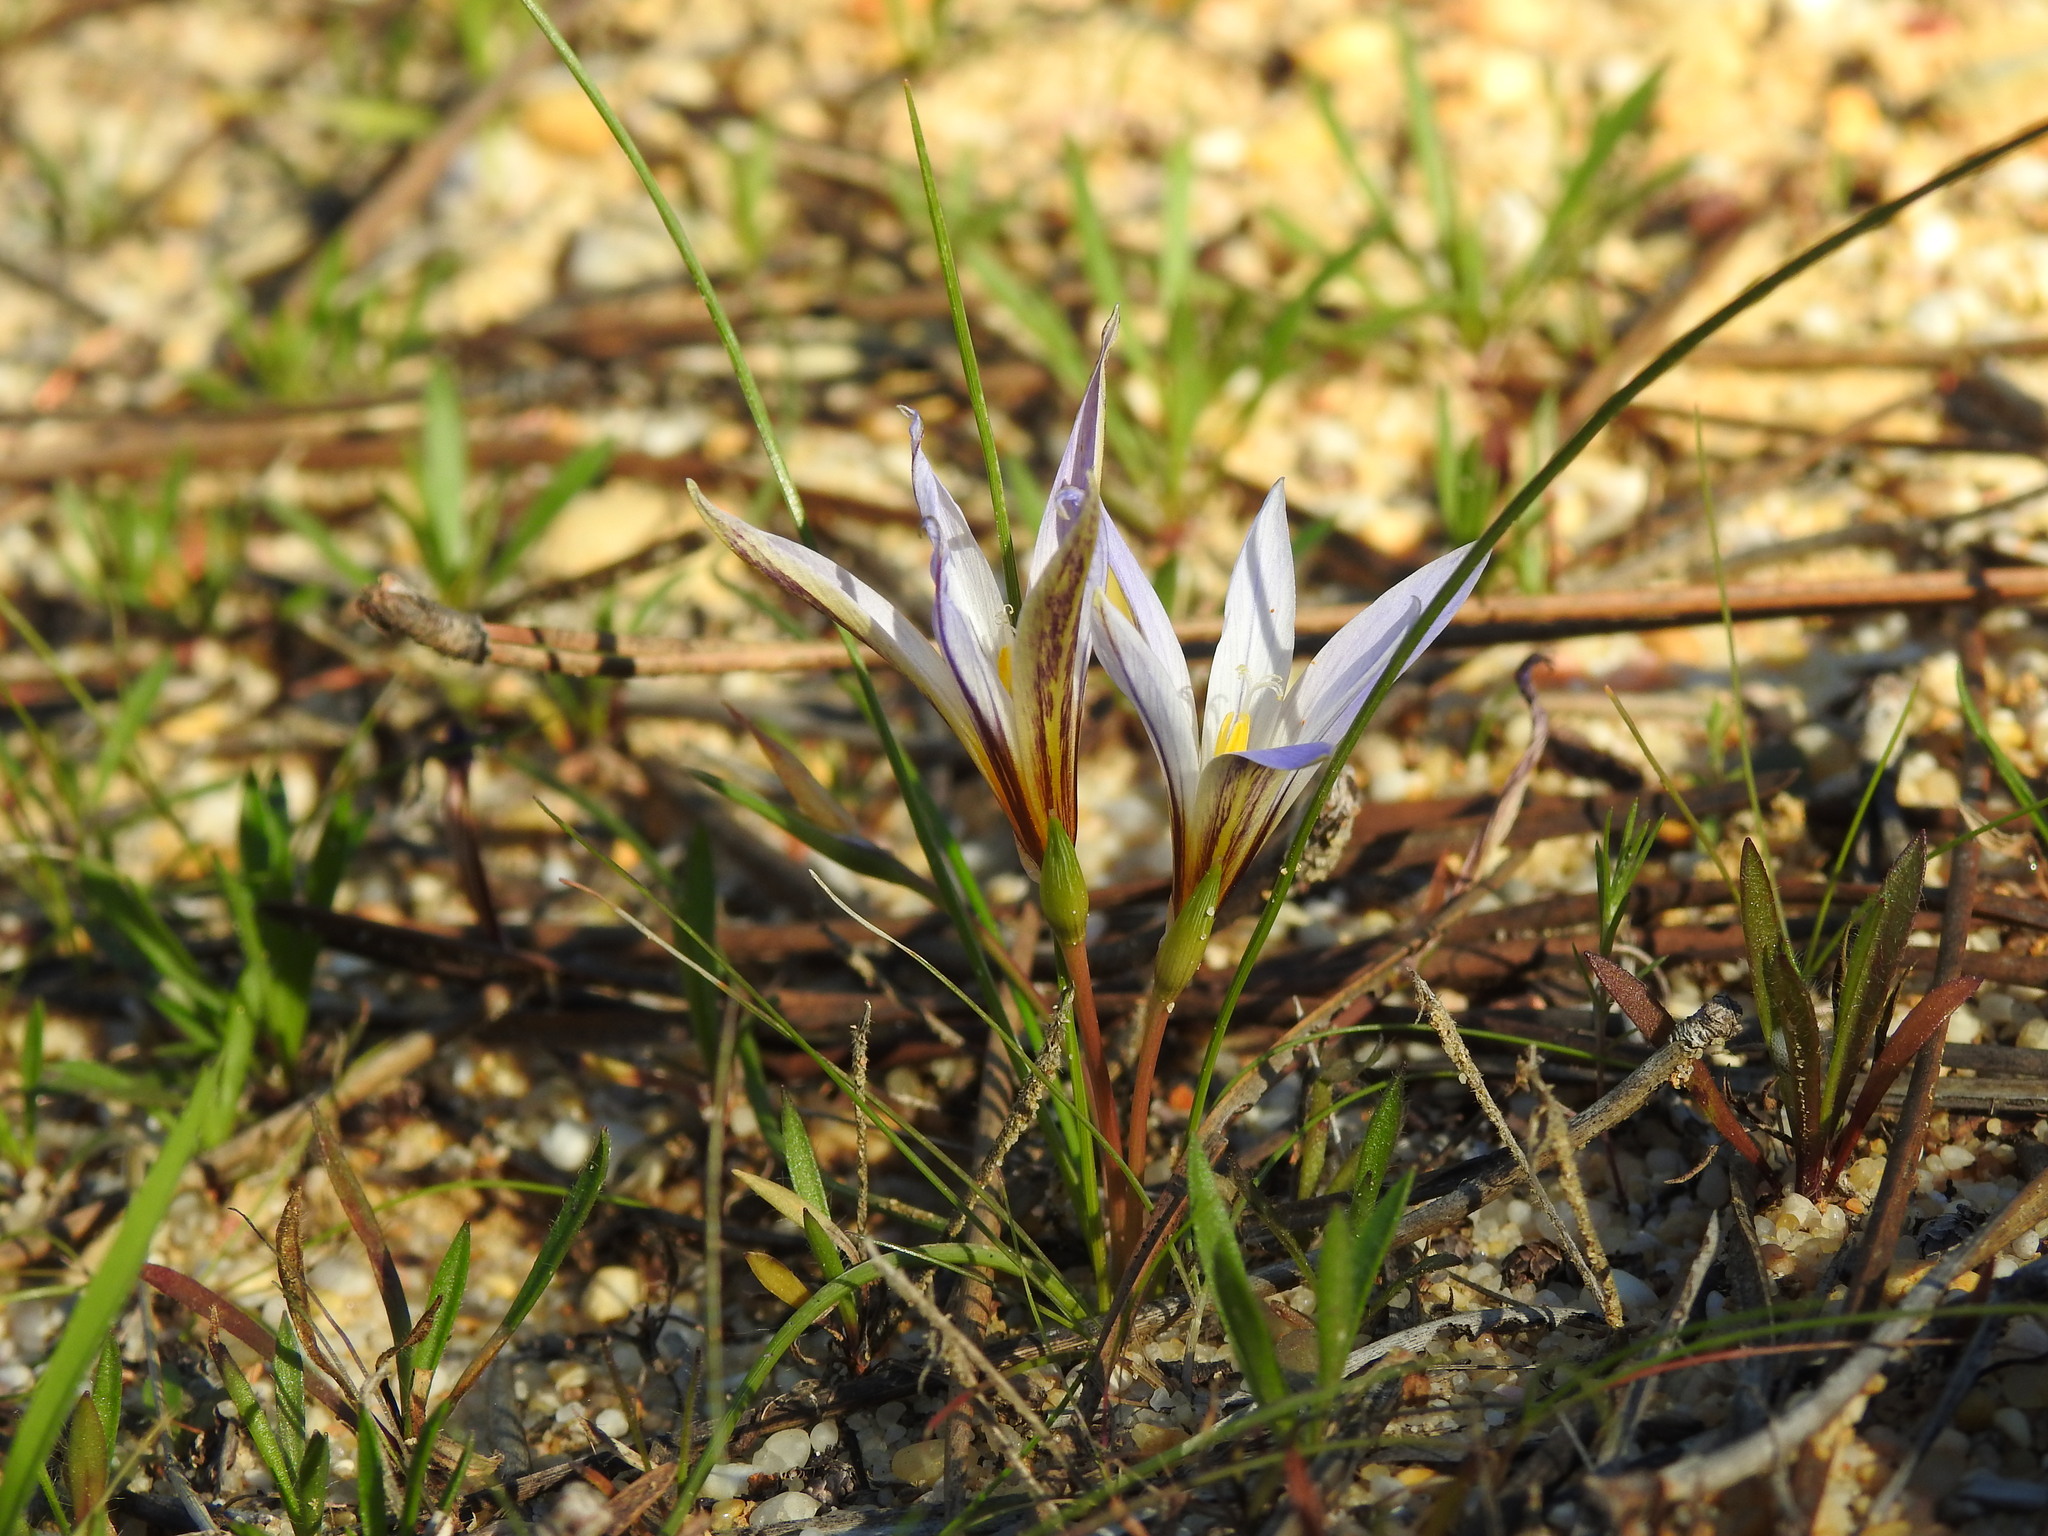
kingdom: Plantae
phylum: Tracheophyta
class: Liliopsida
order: Asparagales
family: Iridaceae
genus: Romulea
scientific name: Romulea bulbocodium
